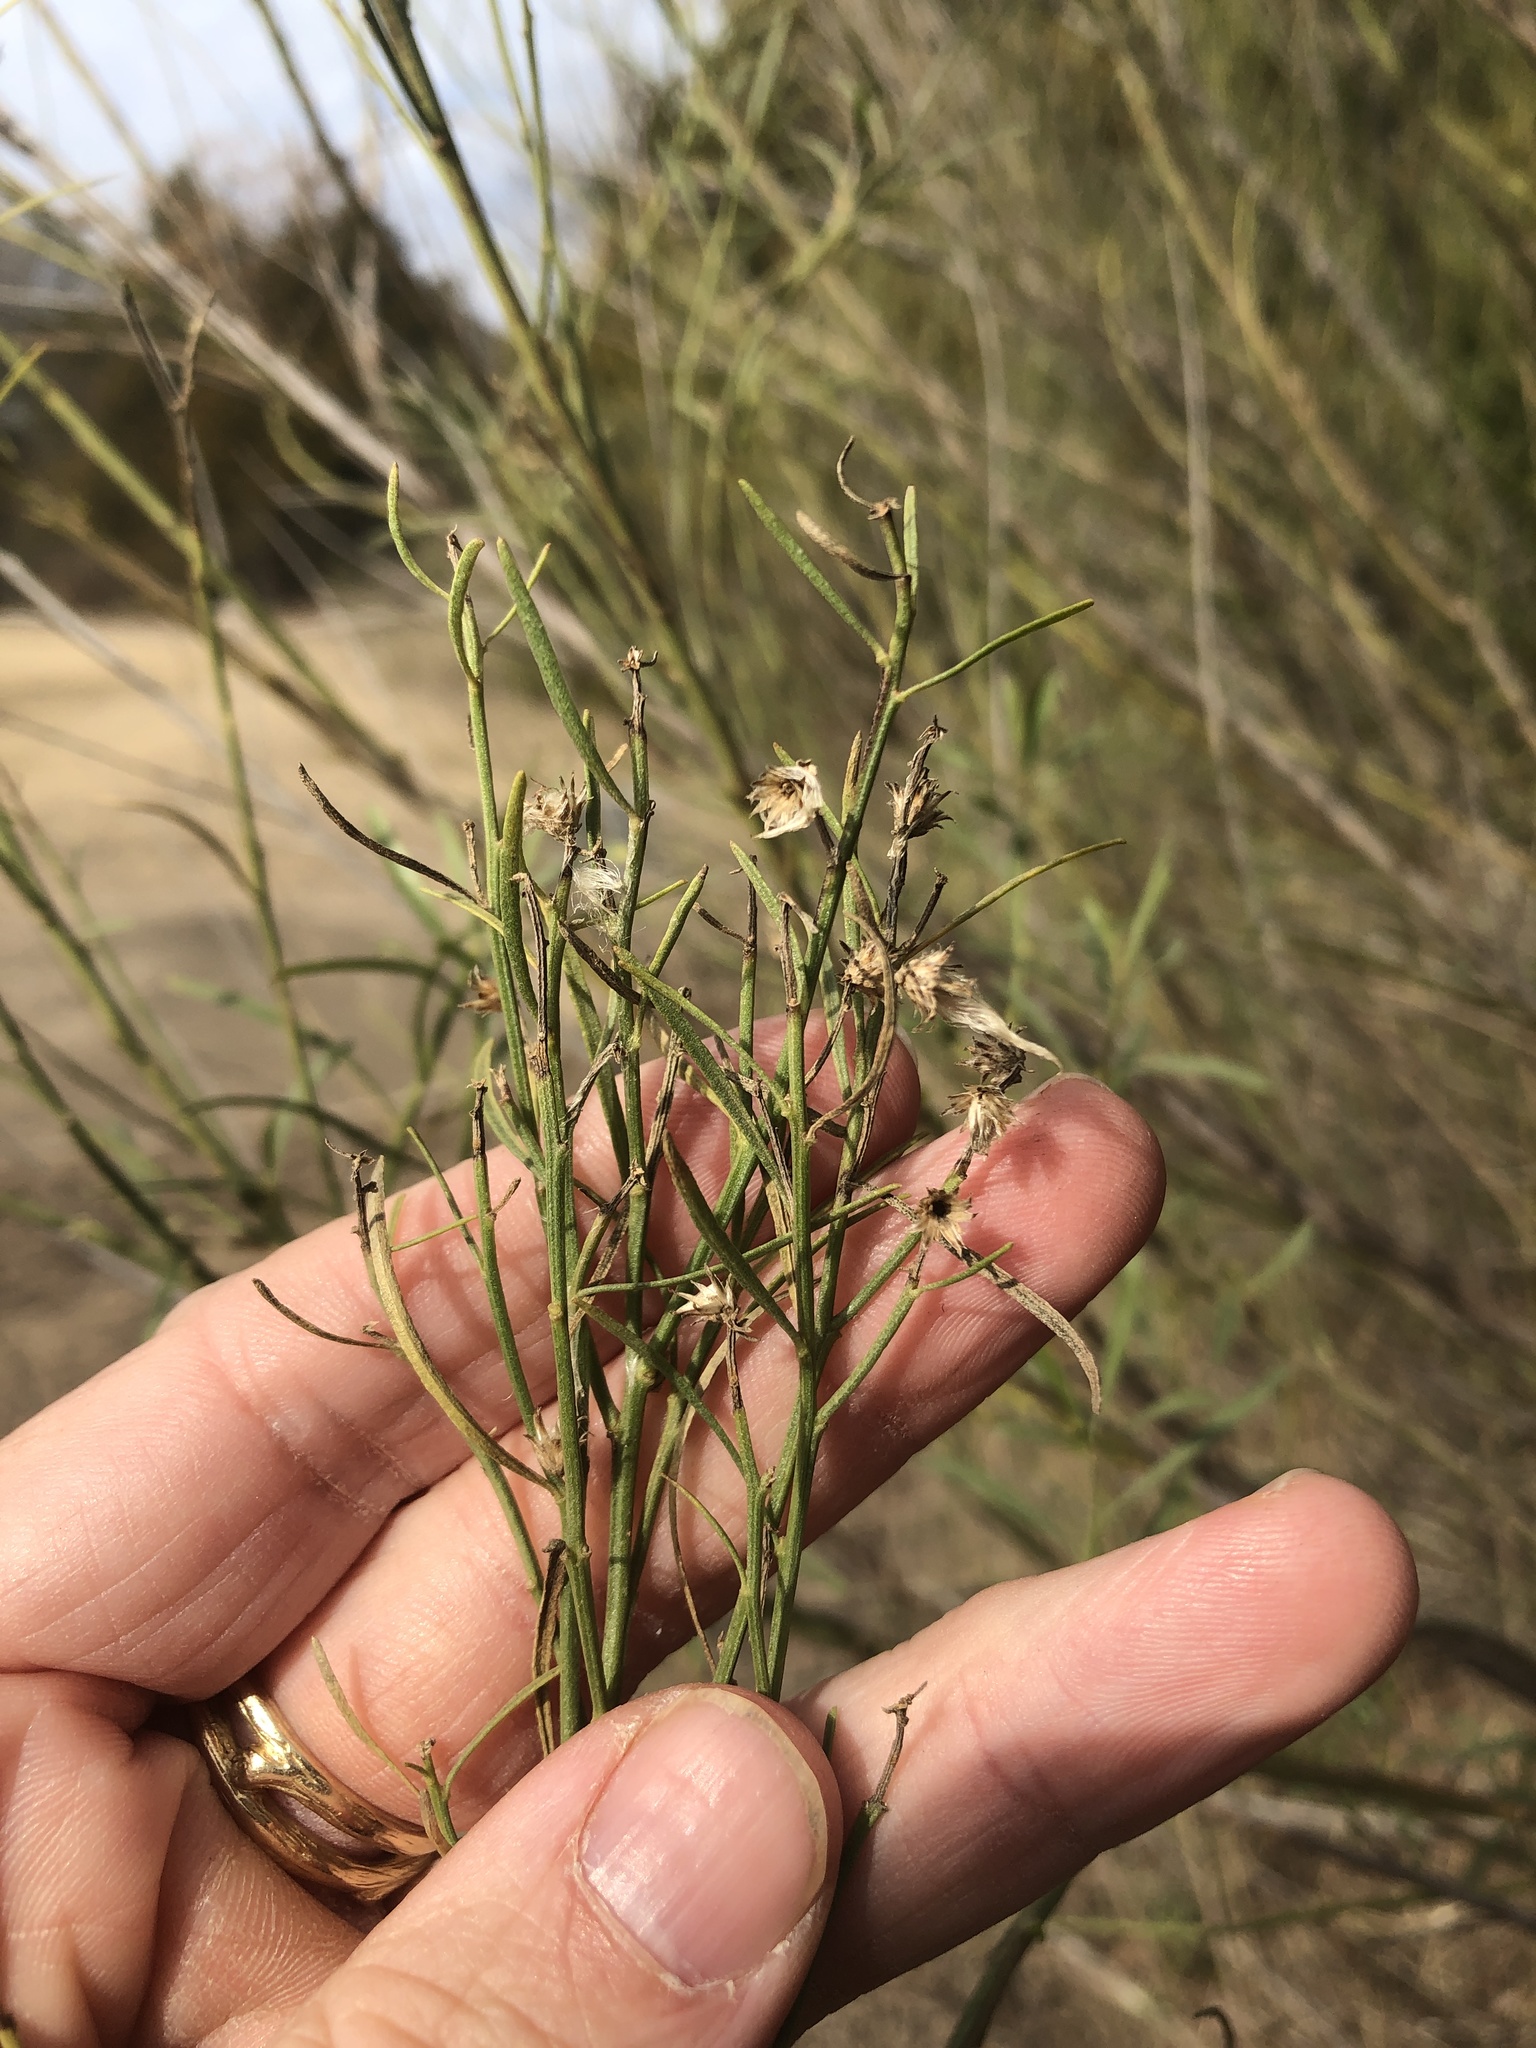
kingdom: Plantae
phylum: Tracheophyta
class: Magnoliopsida
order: Asterales
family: Asteraceae
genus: Baccharis
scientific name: Baccharis neglecta
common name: Roosevelt-weed
